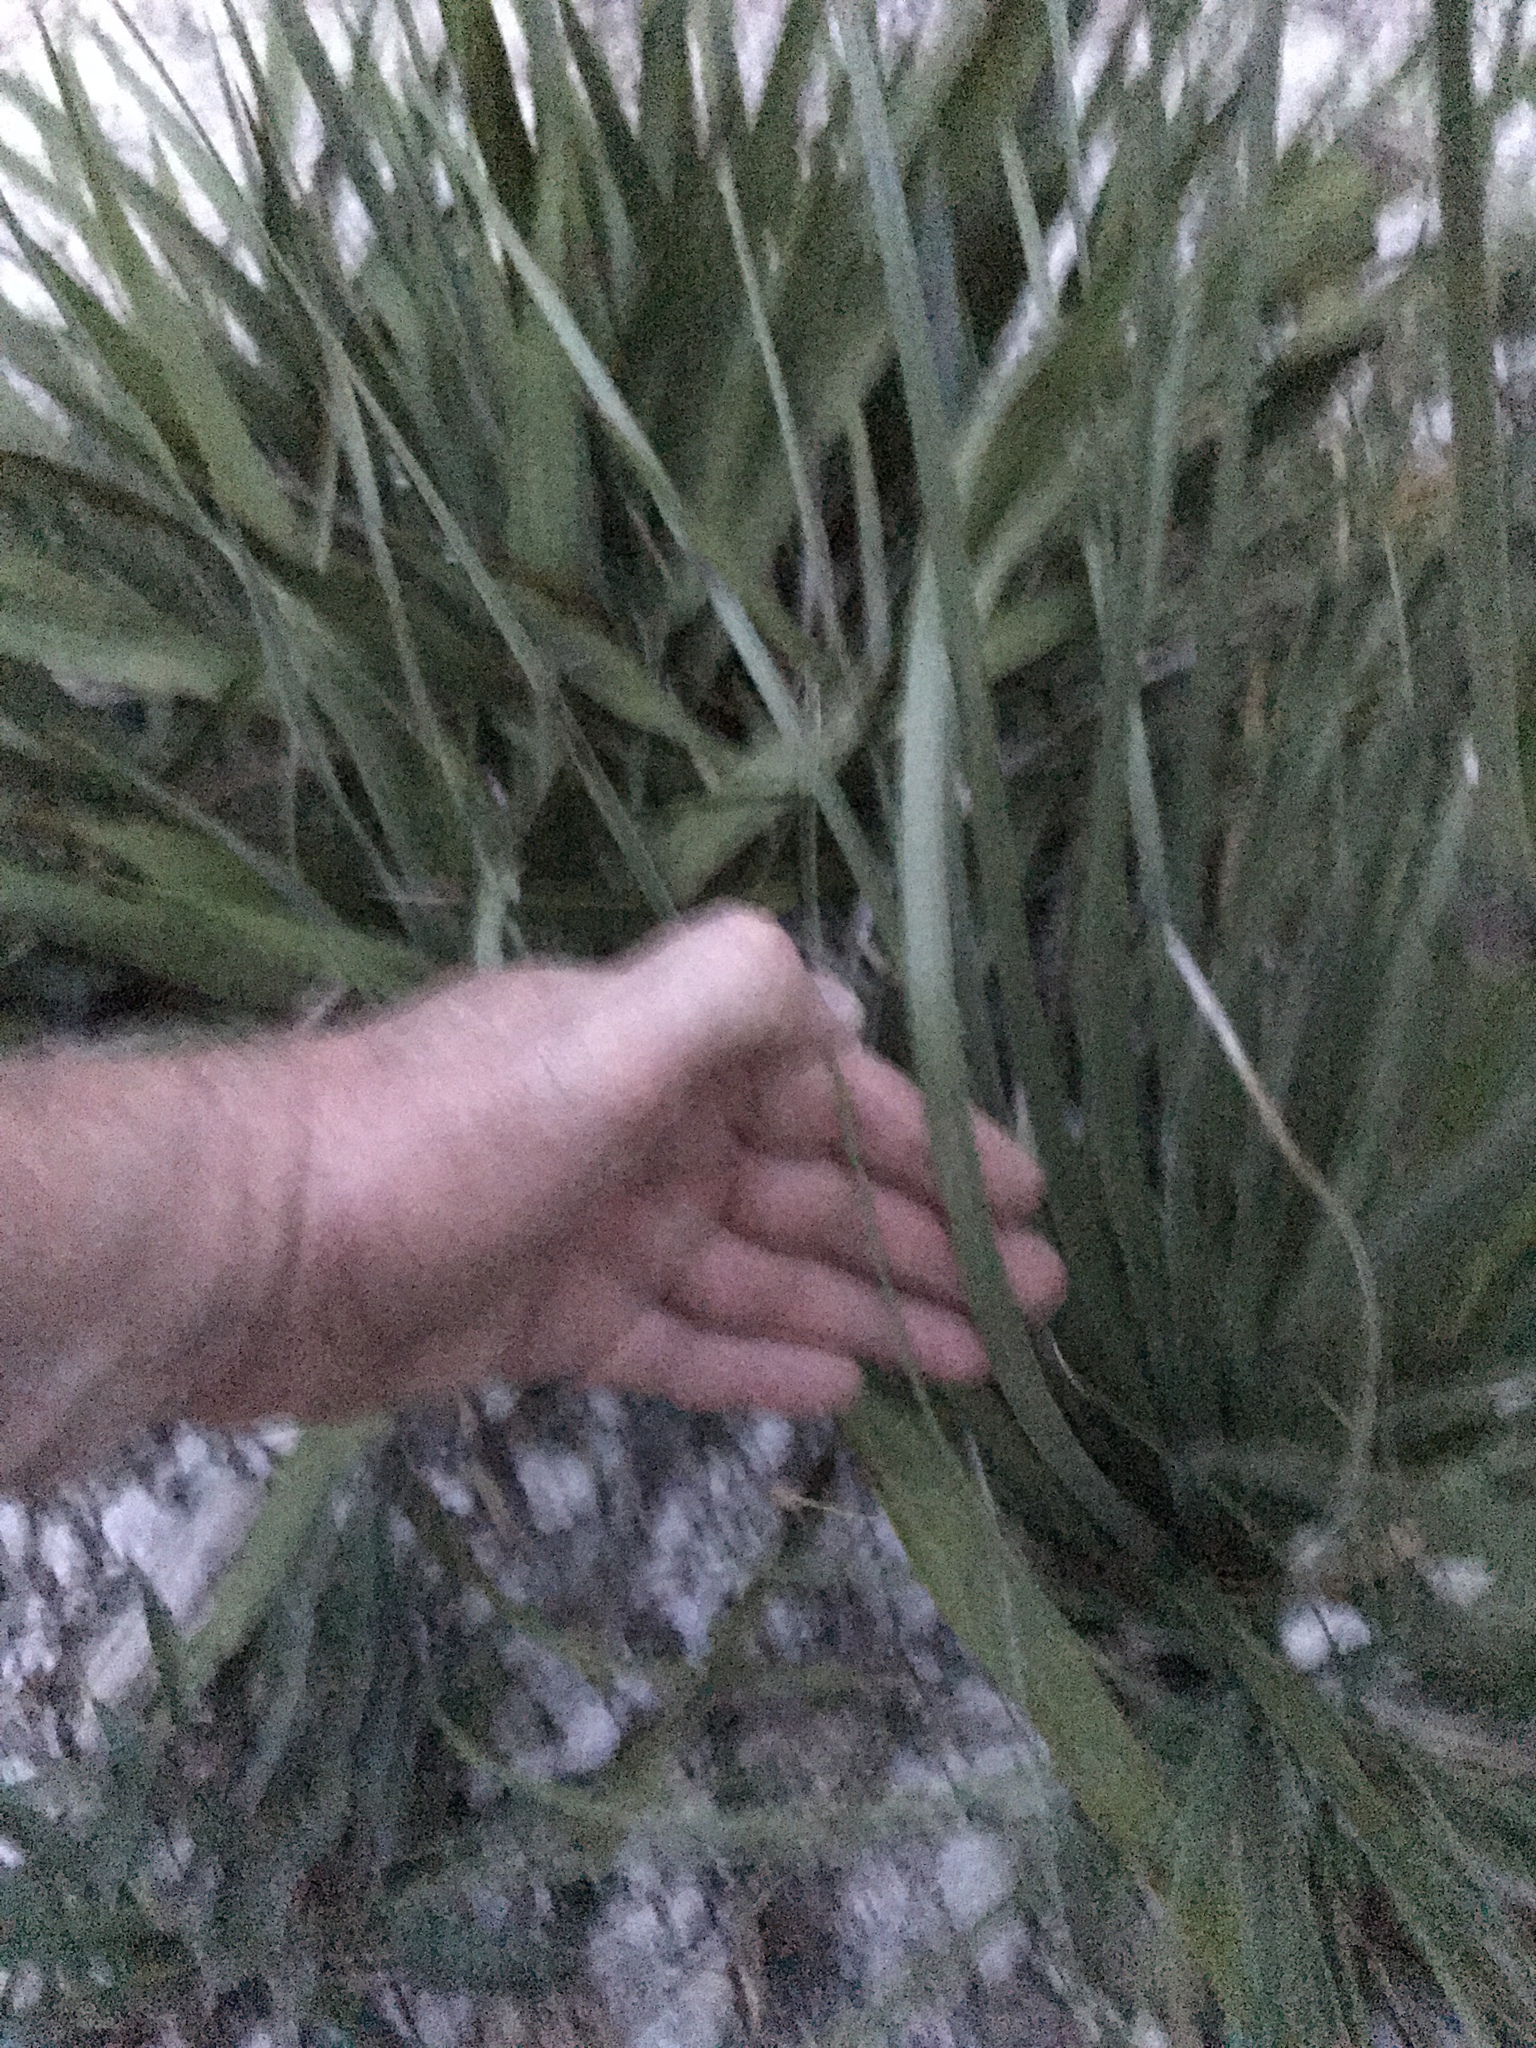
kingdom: Plantae
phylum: Tracheophyta
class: Liliopsida
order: Asparagales
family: Asparagaceae
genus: Nolina
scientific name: Nolina lindheimeriana
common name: Lindheimer's bear-grass
